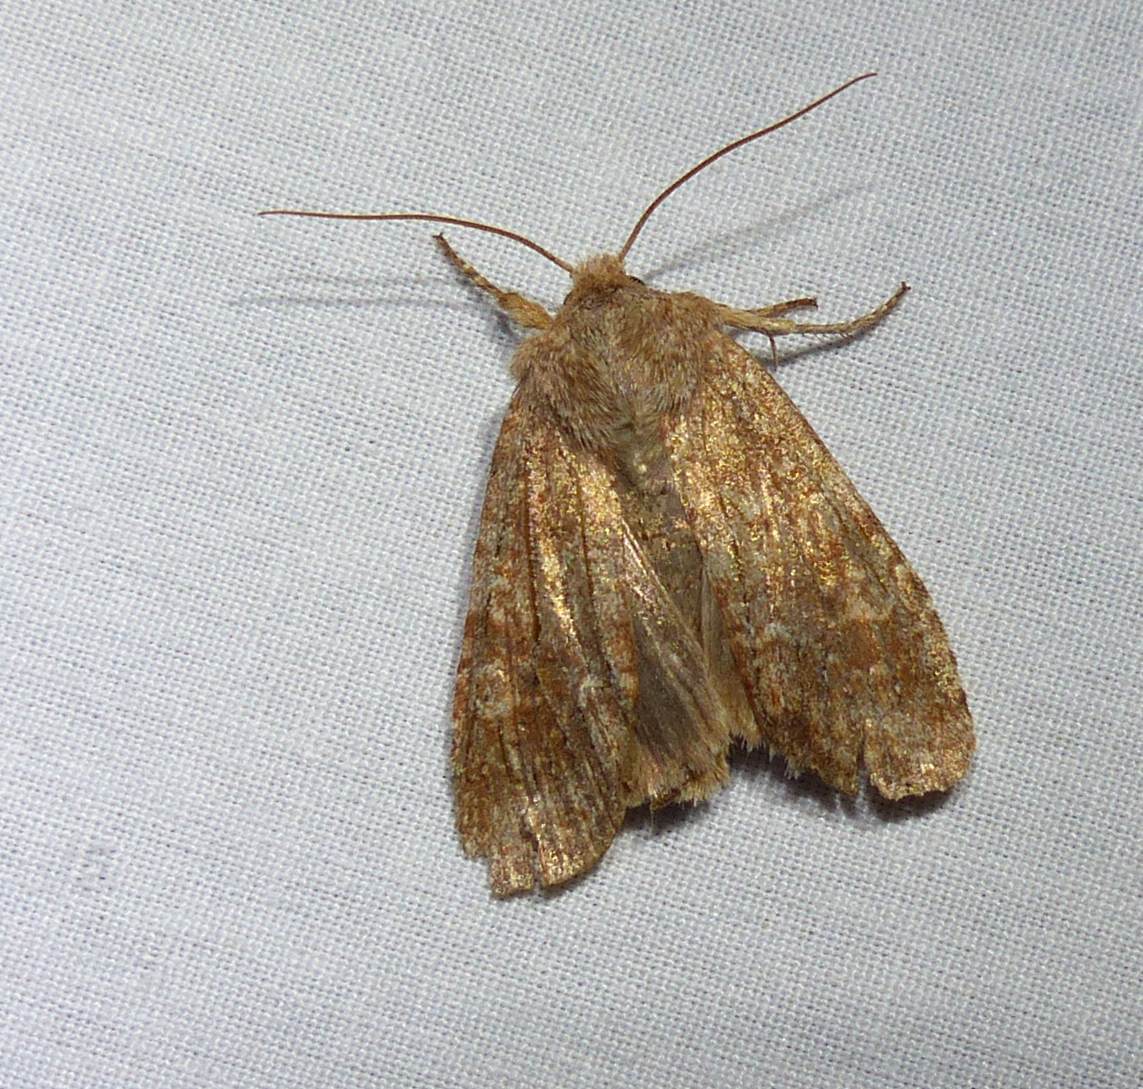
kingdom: Animalia
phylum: Arthropoda
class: Insecta
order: Lepidoptera
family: Noctuidae
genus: Lithophane
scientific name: Lithophane semiusta
